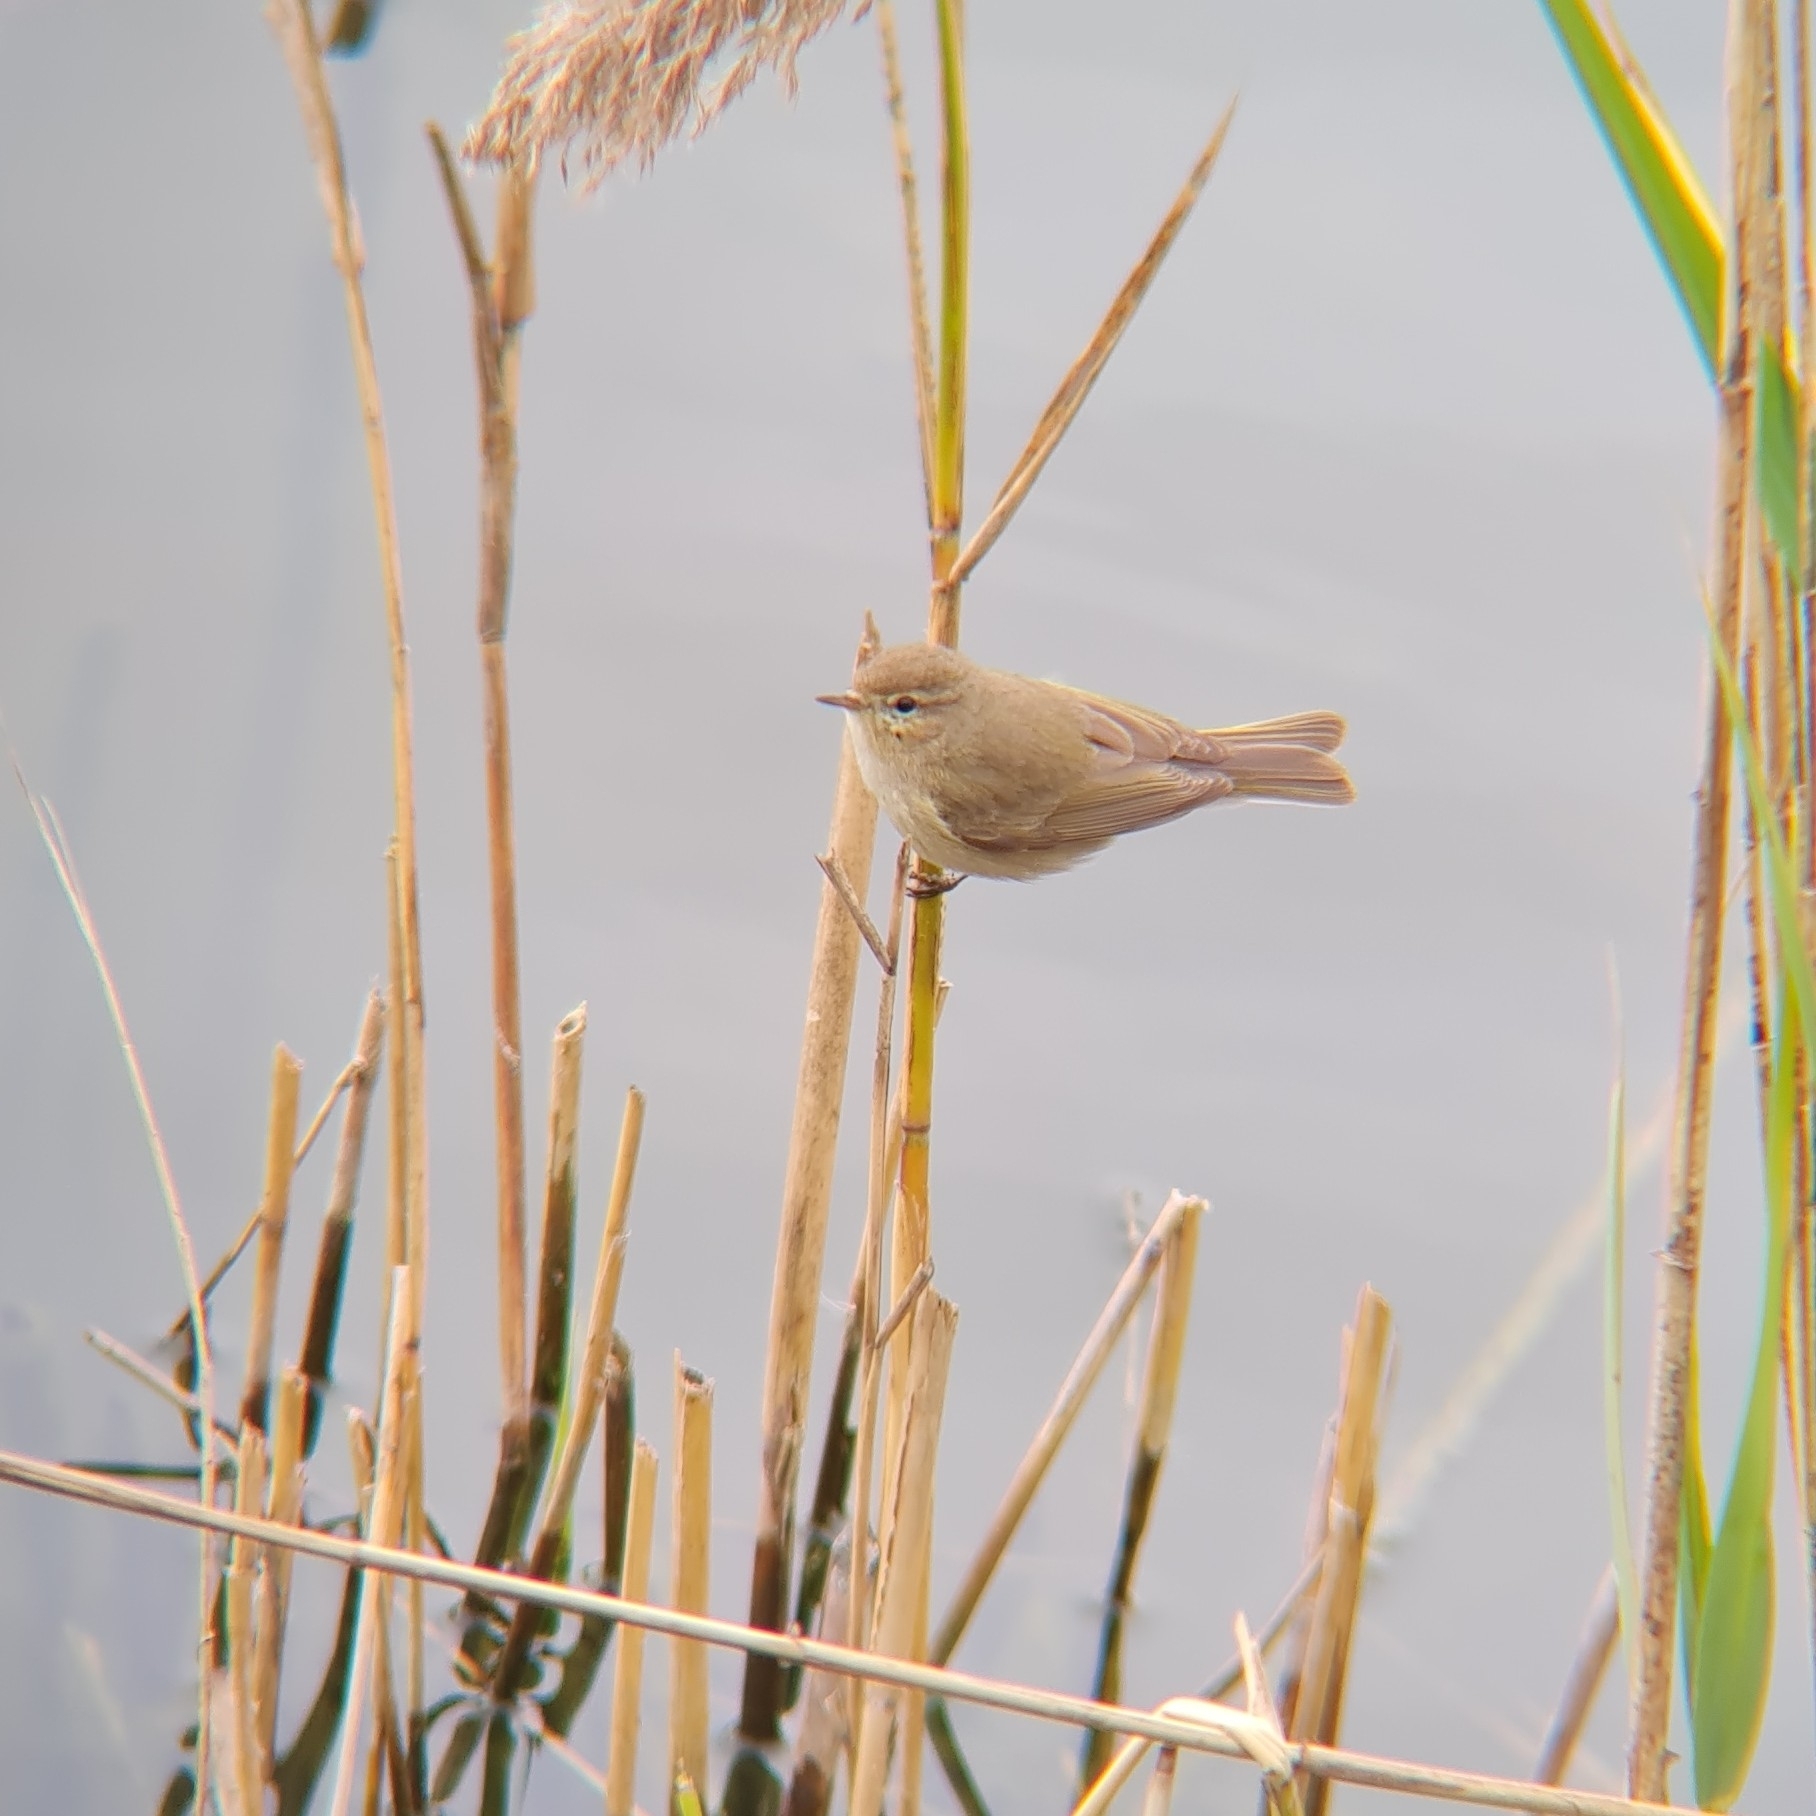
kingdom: Animalia
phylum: Chordata
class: Aves
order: Passeriformes
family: Phylloscopidae
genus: Phylloscopus
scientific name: Phylloscopus collybita
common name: Common chiffchaff
